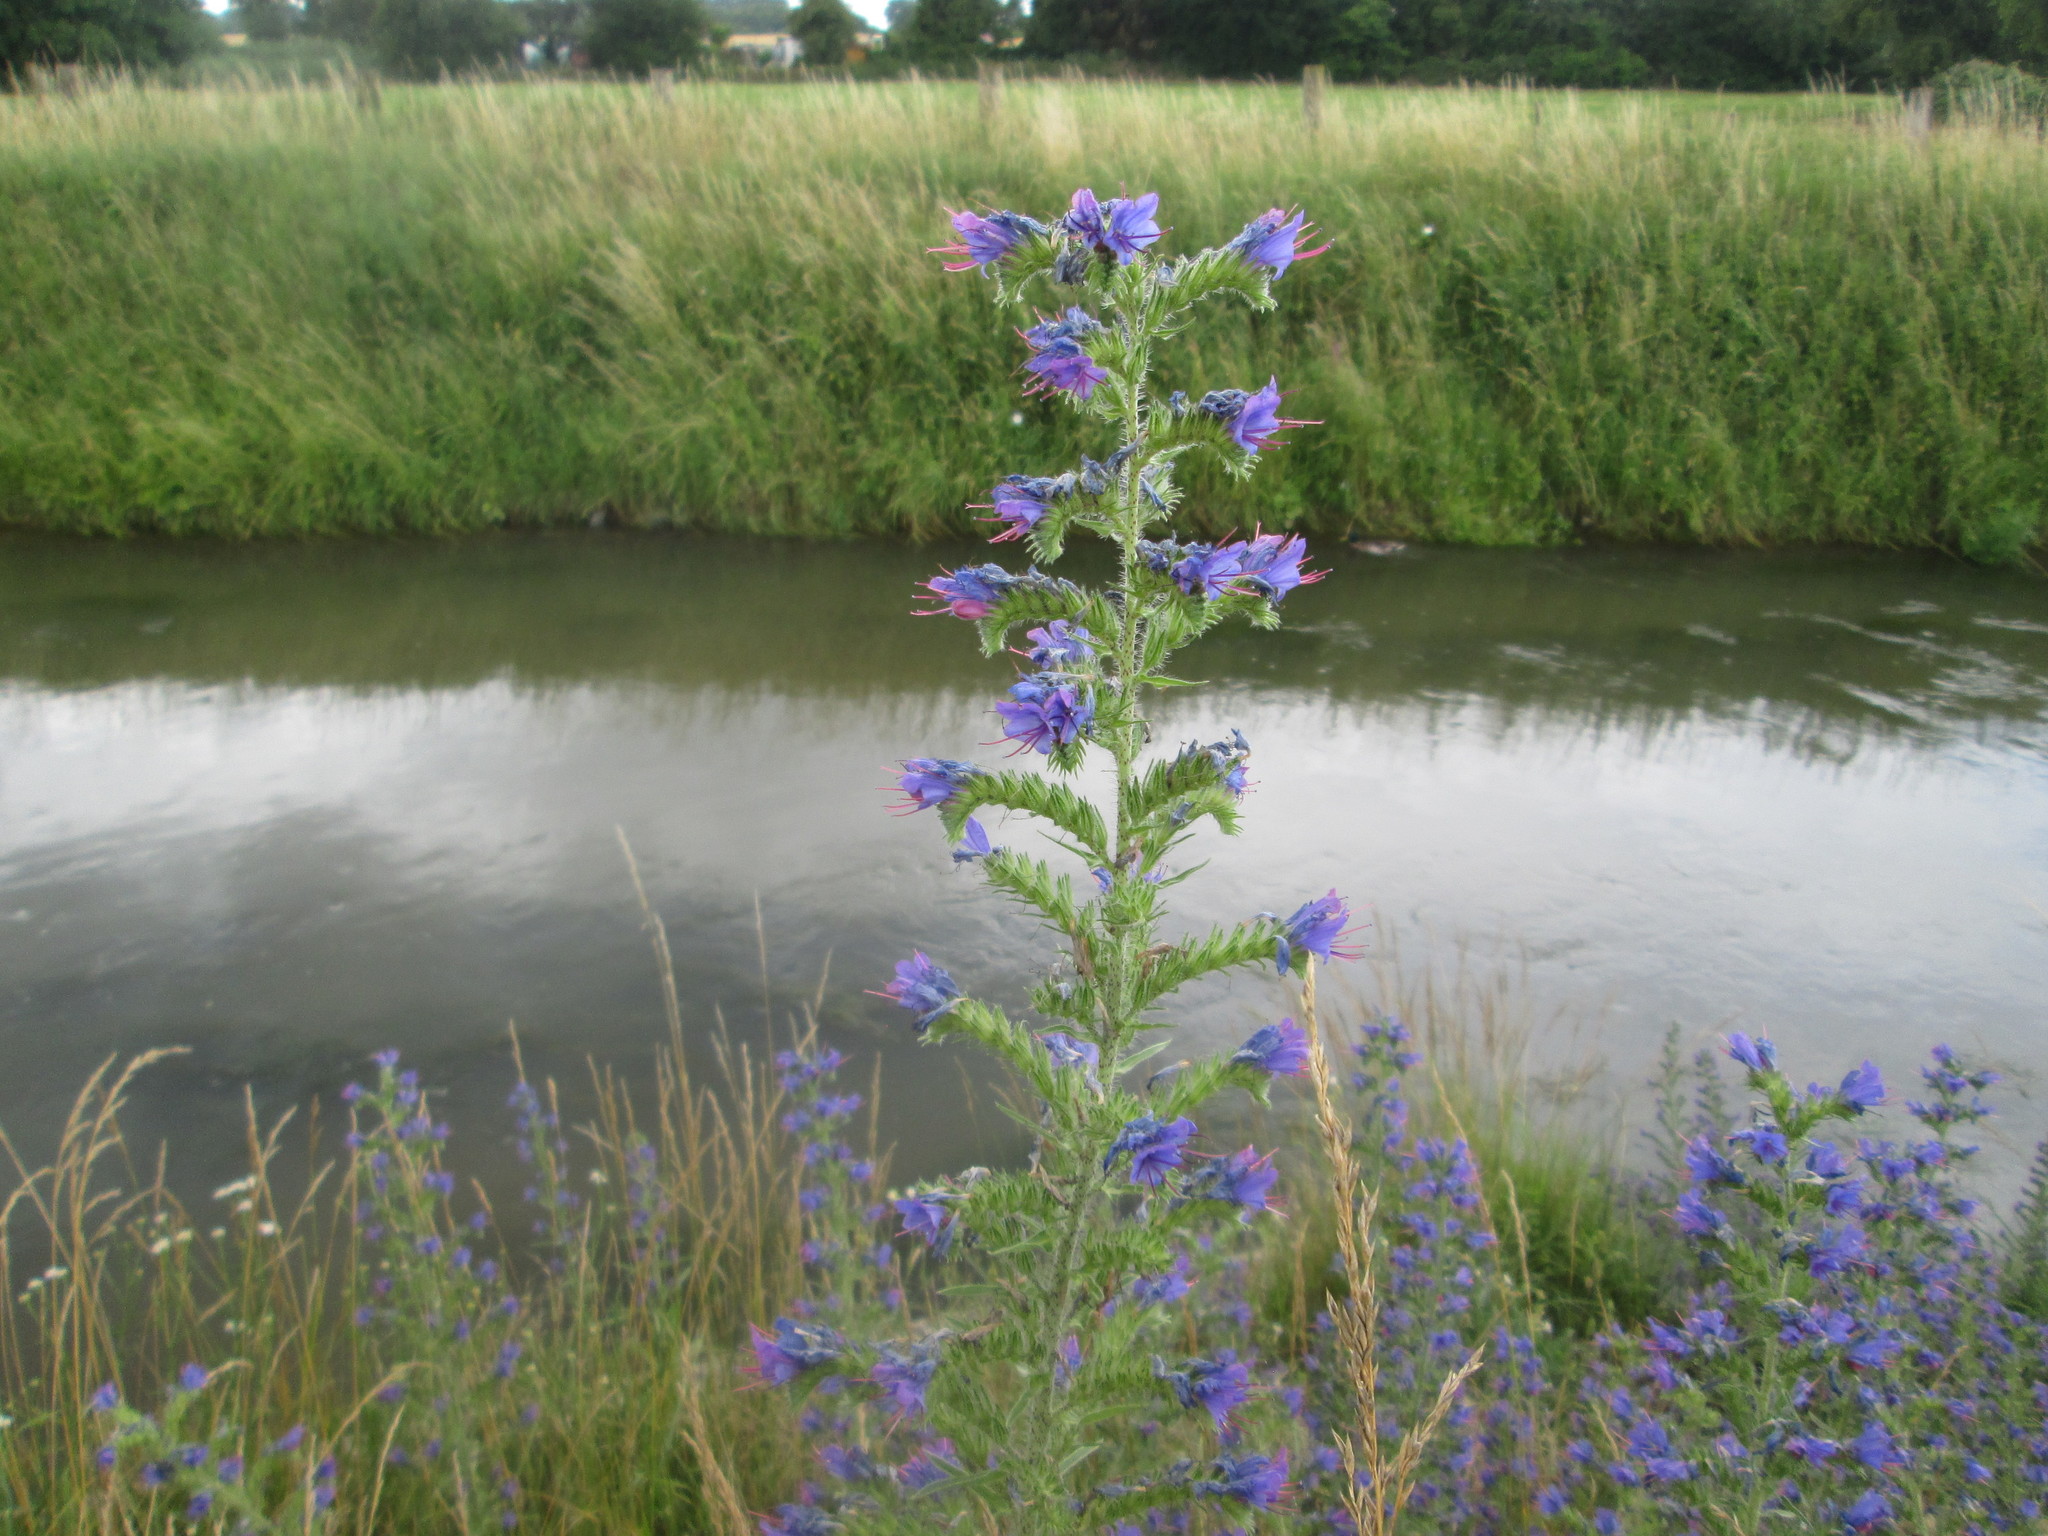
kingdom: Plantae
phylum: Tracheophyta
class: Magnoliopsida
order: Boraginales
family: Boraginaceae
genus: Echium
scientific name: Echium vulgare
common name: Common viper's bugloss
